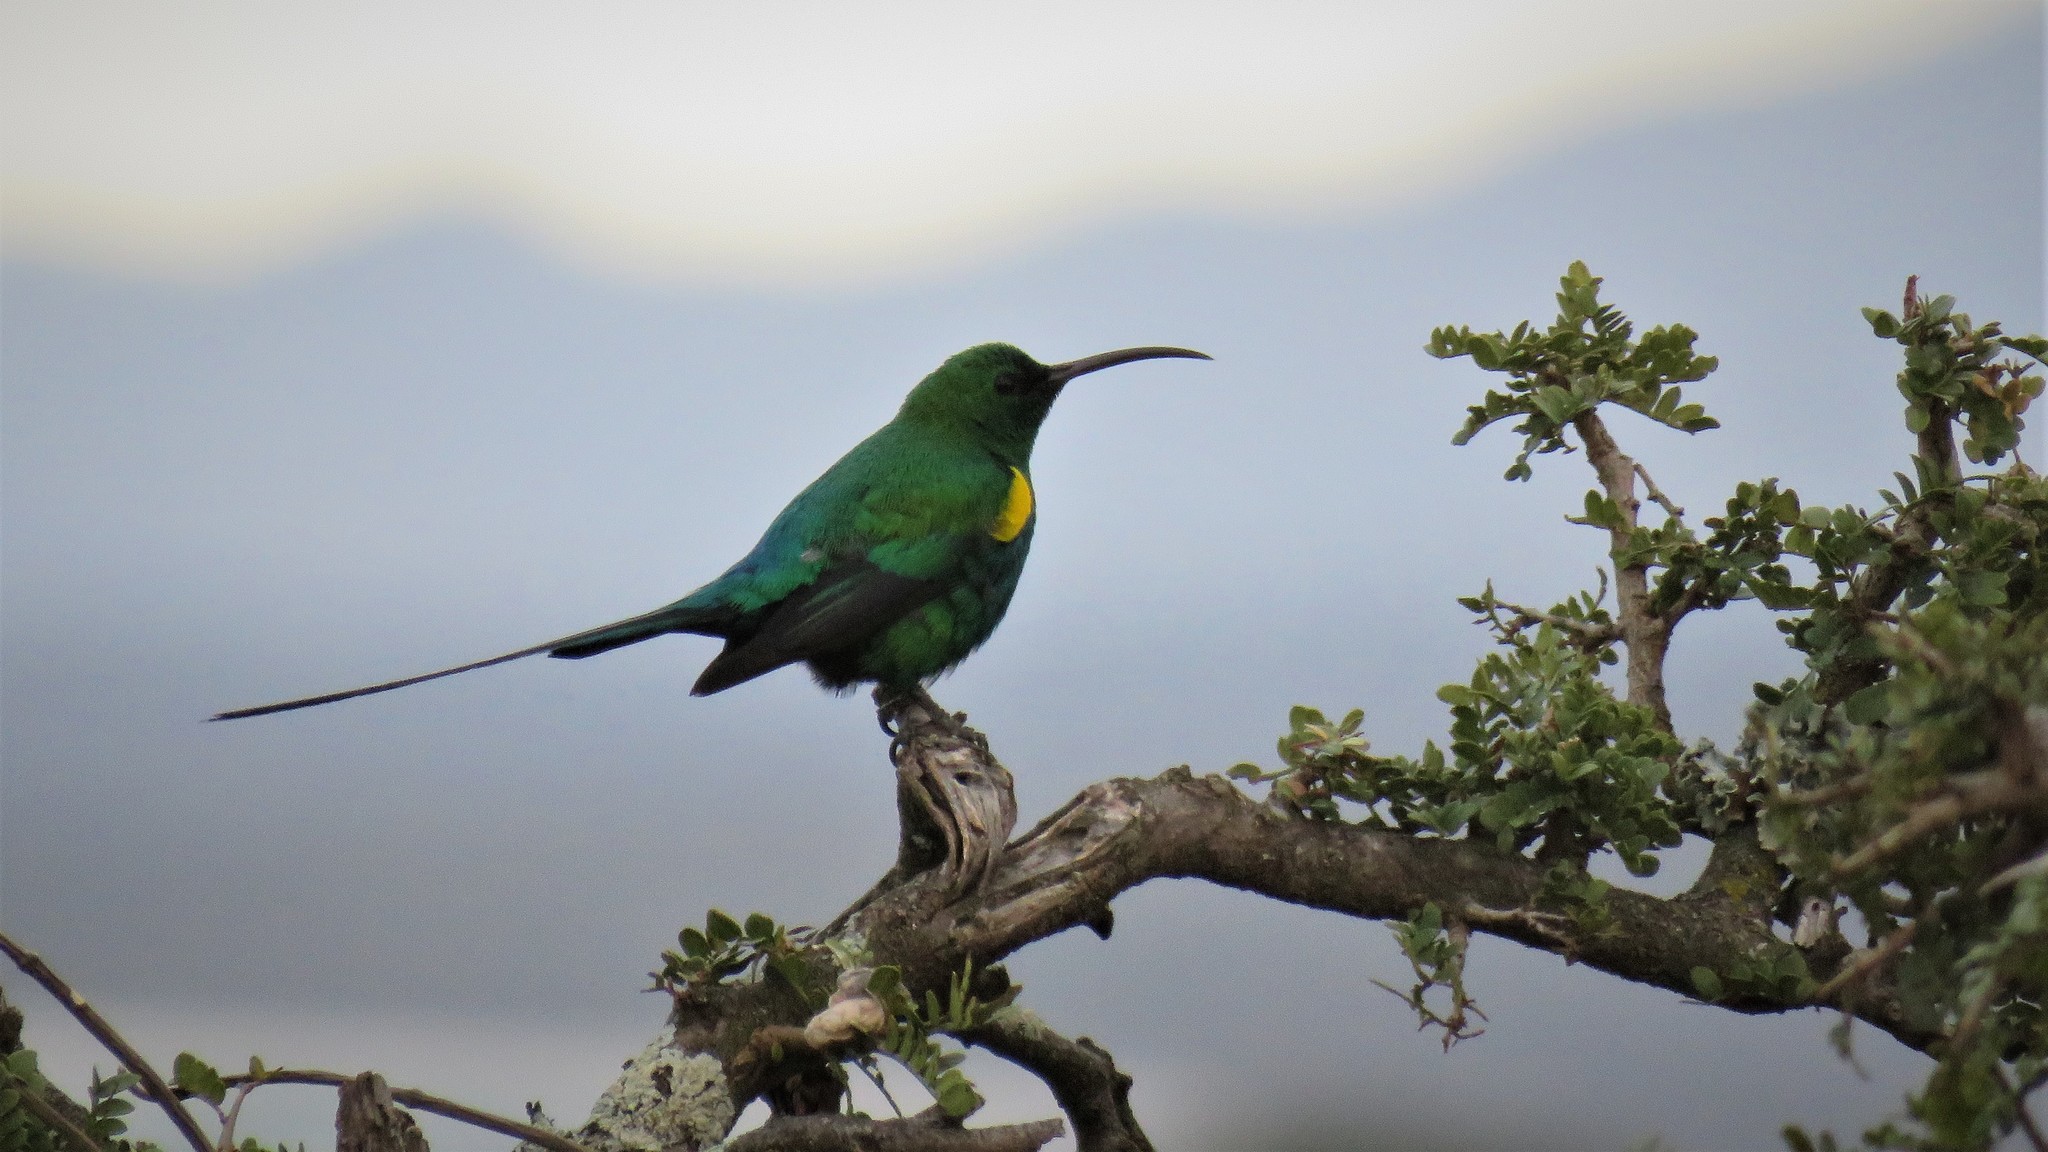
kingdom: Animalia
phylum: Chordata
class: Aves
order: Passeriformes
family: Nectariniidae
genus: Nectarinia
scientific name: Nectarinia famosa
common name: Malachite sunbird
